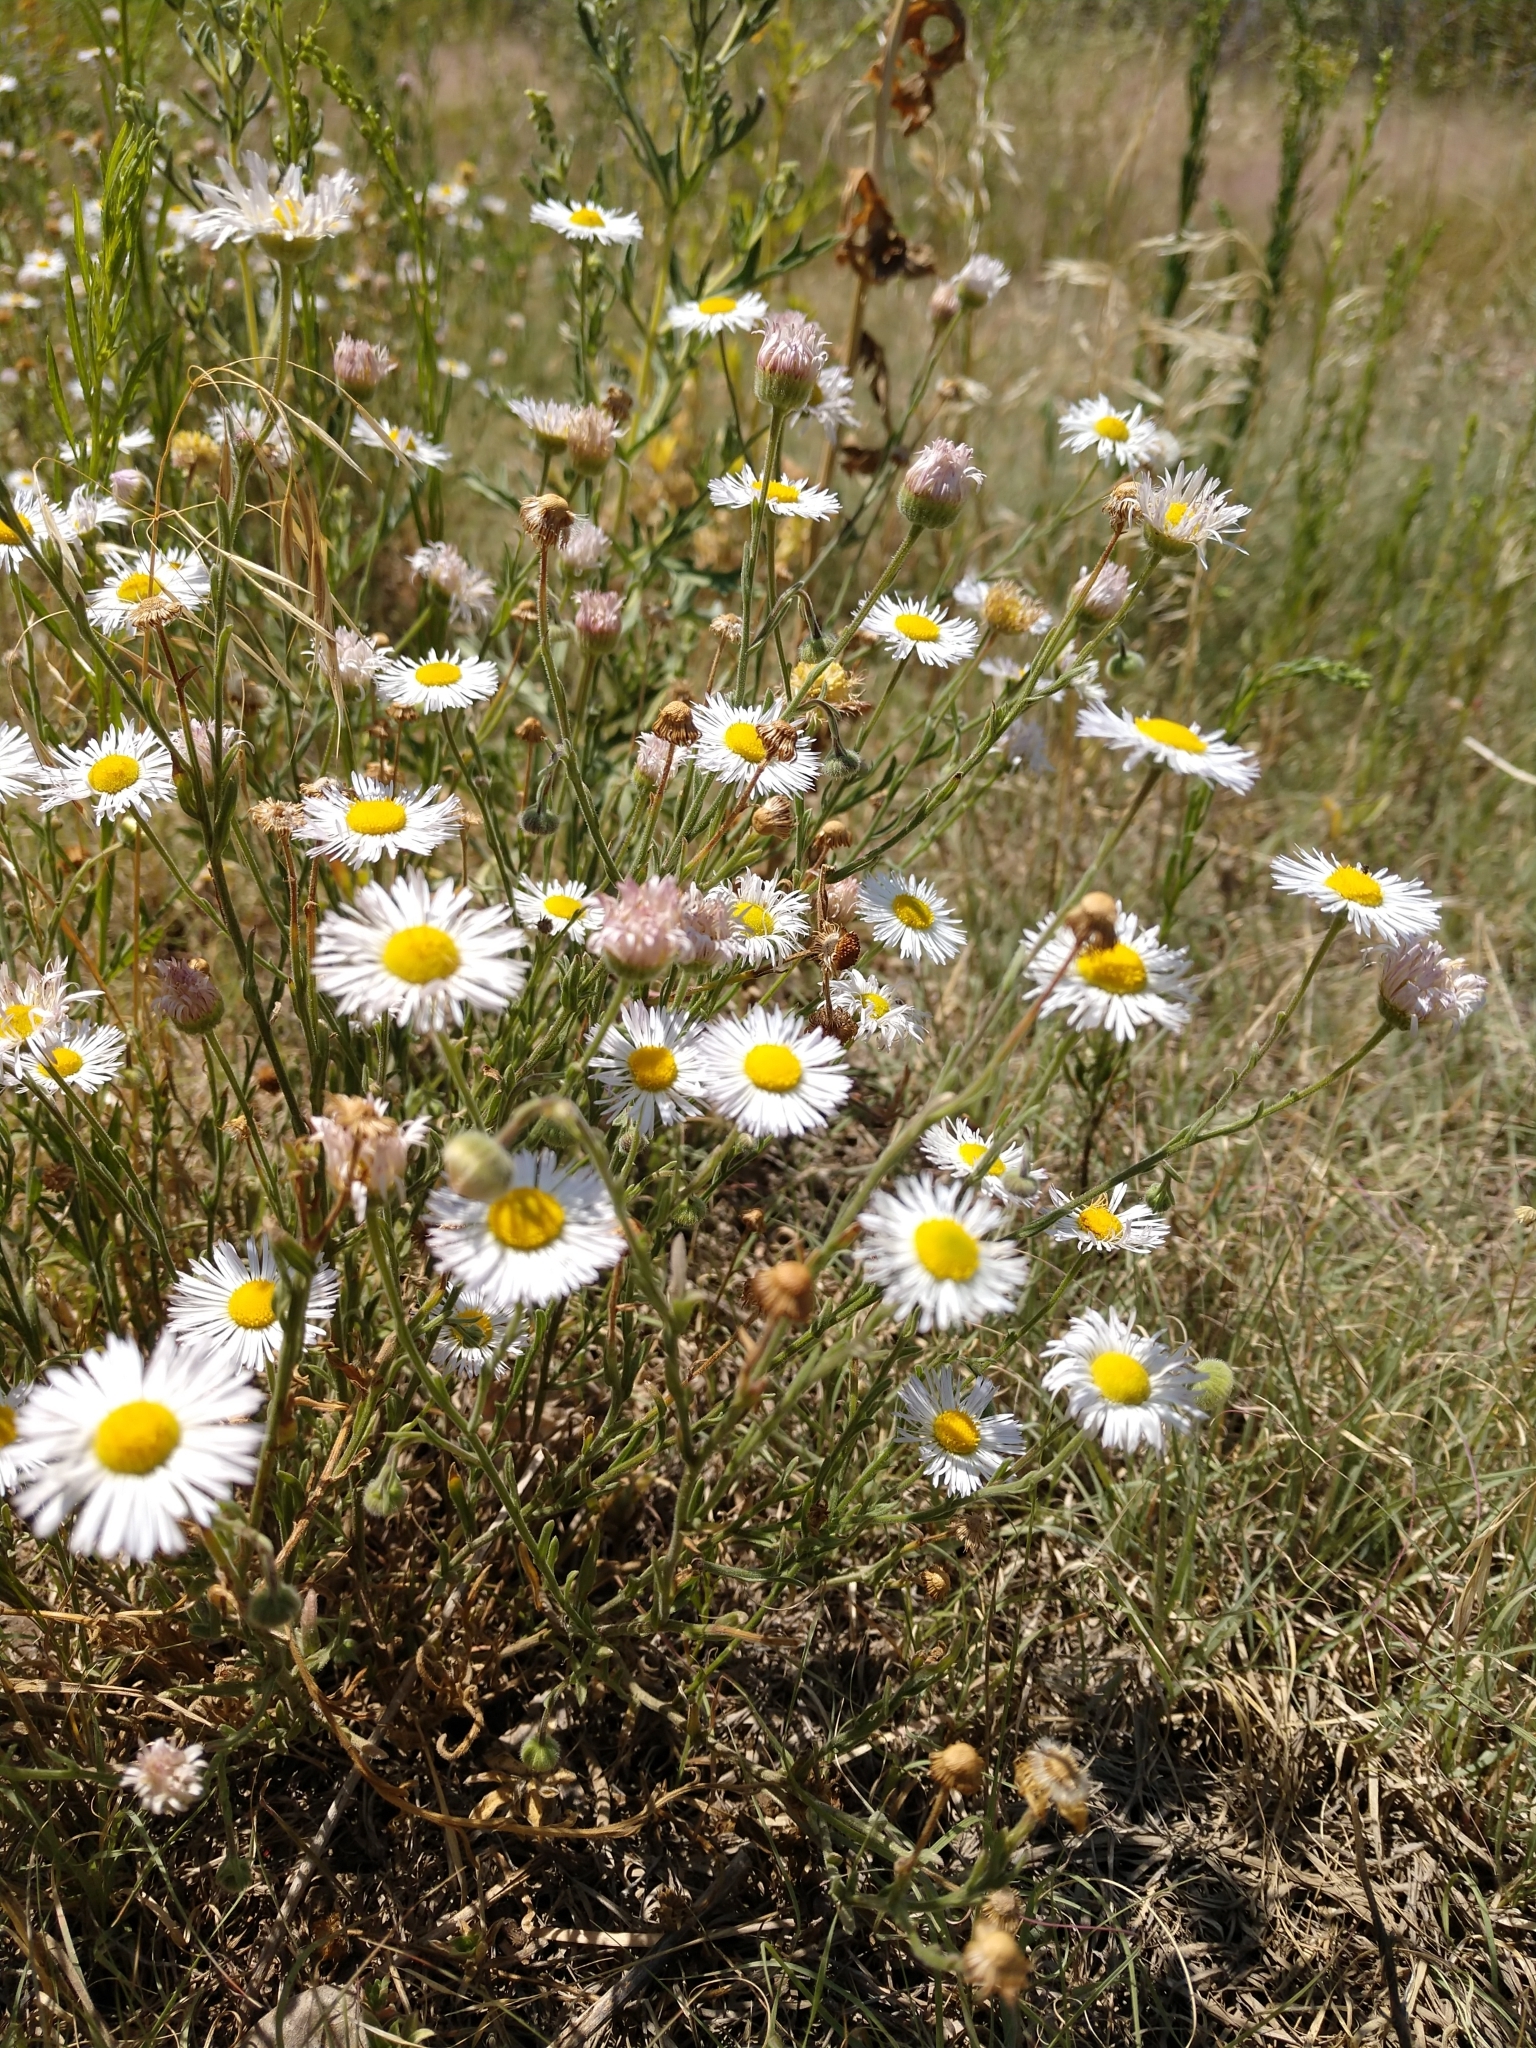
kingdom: Plantae
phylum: Tracheophyta
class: Magnoliopsida
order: Asterales
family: Asteraceae
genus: Erigeron
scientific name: Erigeron divergens
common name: Diffuse fleabane
